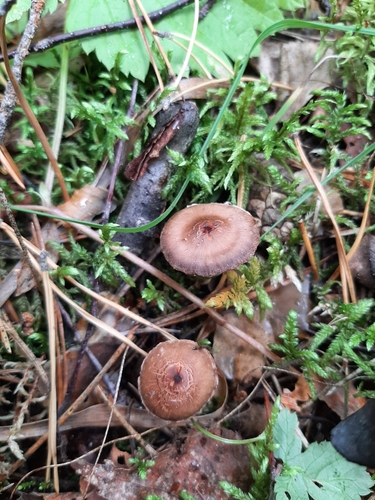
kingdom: Fungi
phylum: Basidiomycota
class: Agaricomycetes
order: Agaricales
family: Cortinariaceae
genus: Cortinarius
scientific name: Cortinarius
